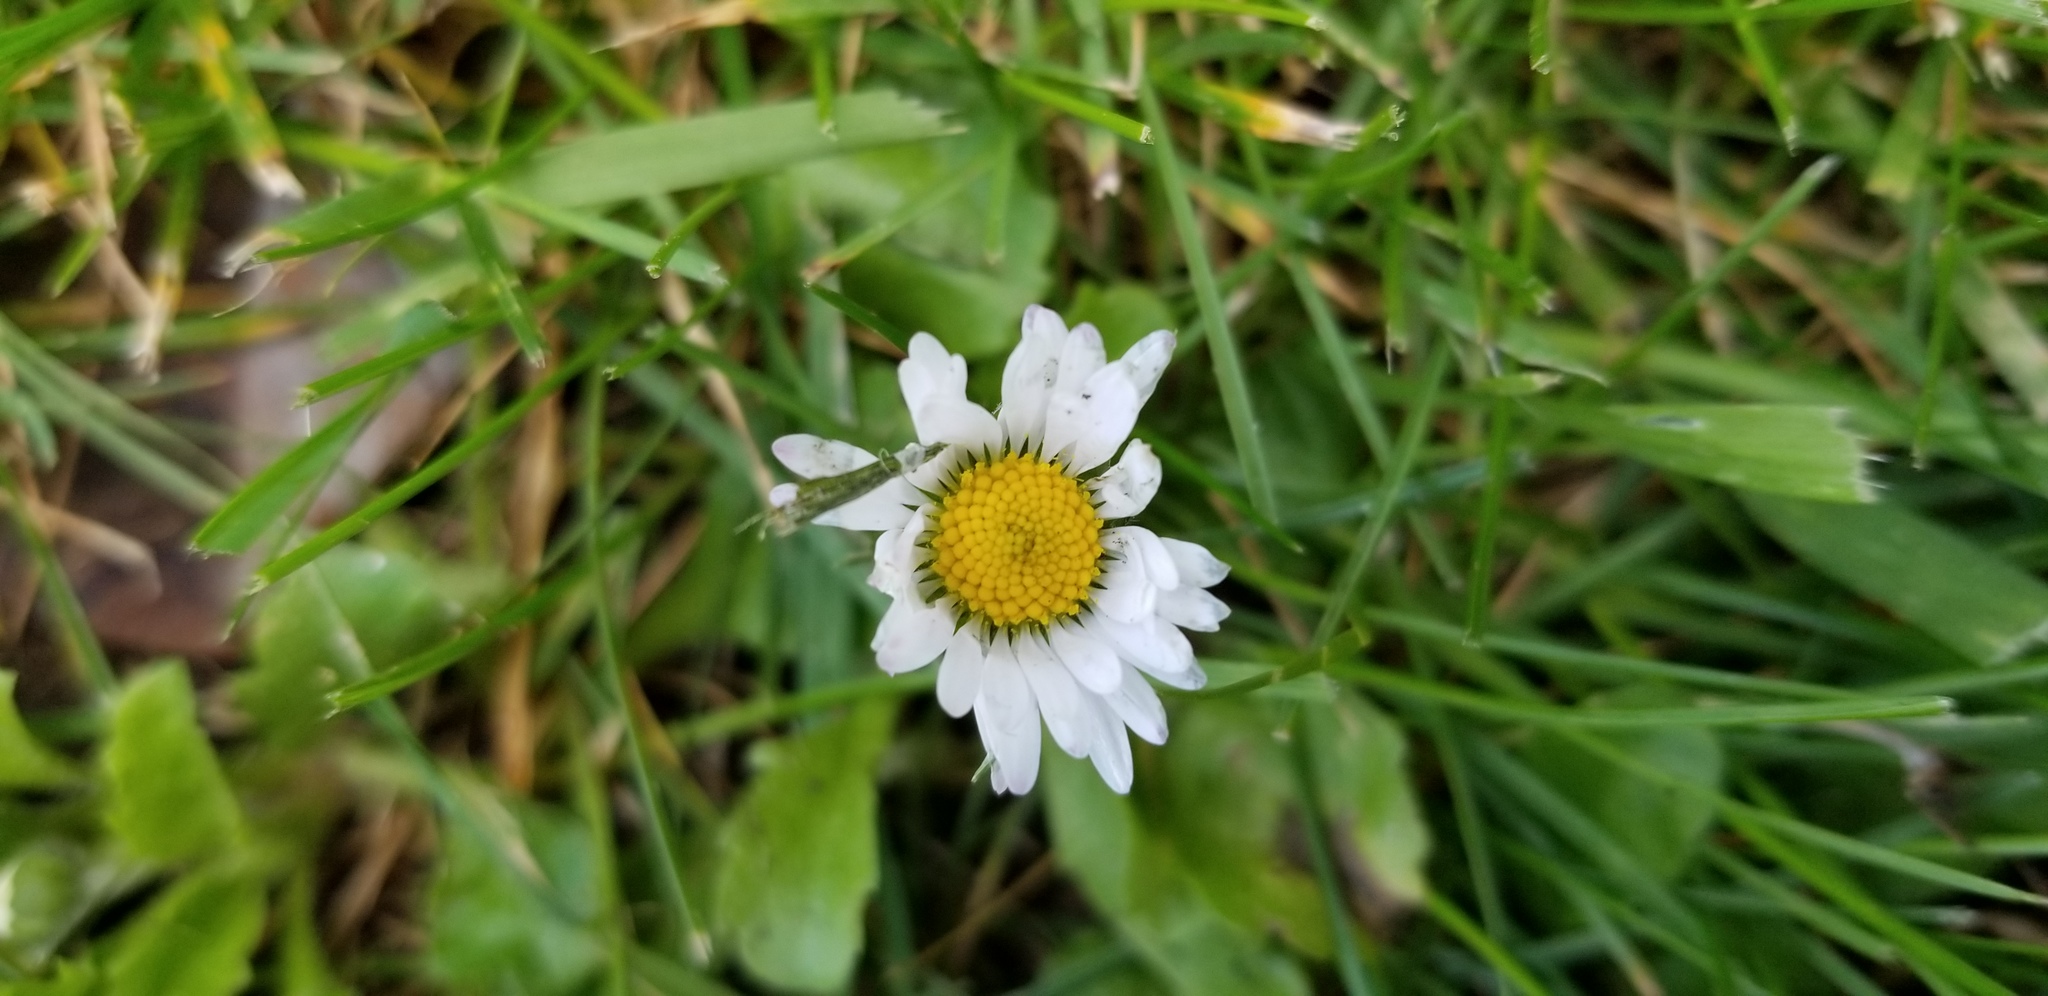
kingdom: Plantae
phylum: Tracheophyta
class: Magnoliopsida
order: Asterales
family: Asteraceae
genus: Bellis
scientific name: Bellis perennis
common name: Lawndaisy
